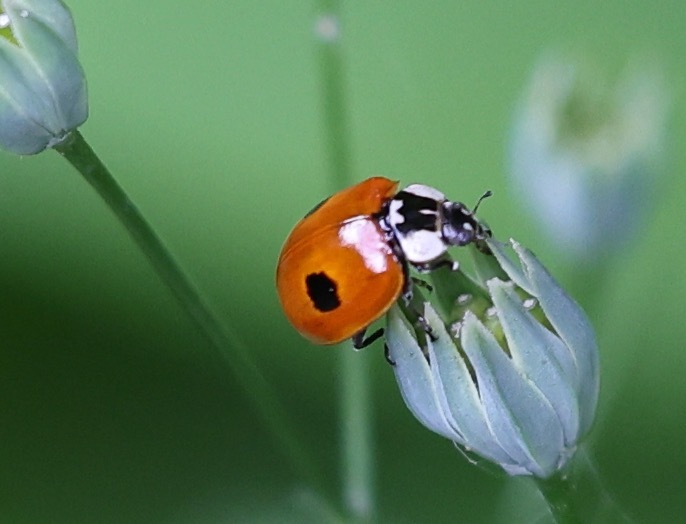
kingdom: Animalia
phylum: Arthropoda
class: Insecta
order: Coleoptera
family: Coccinellidae
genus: Adalia
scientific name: Adalia bipunctata
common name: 2-spot ladybird
